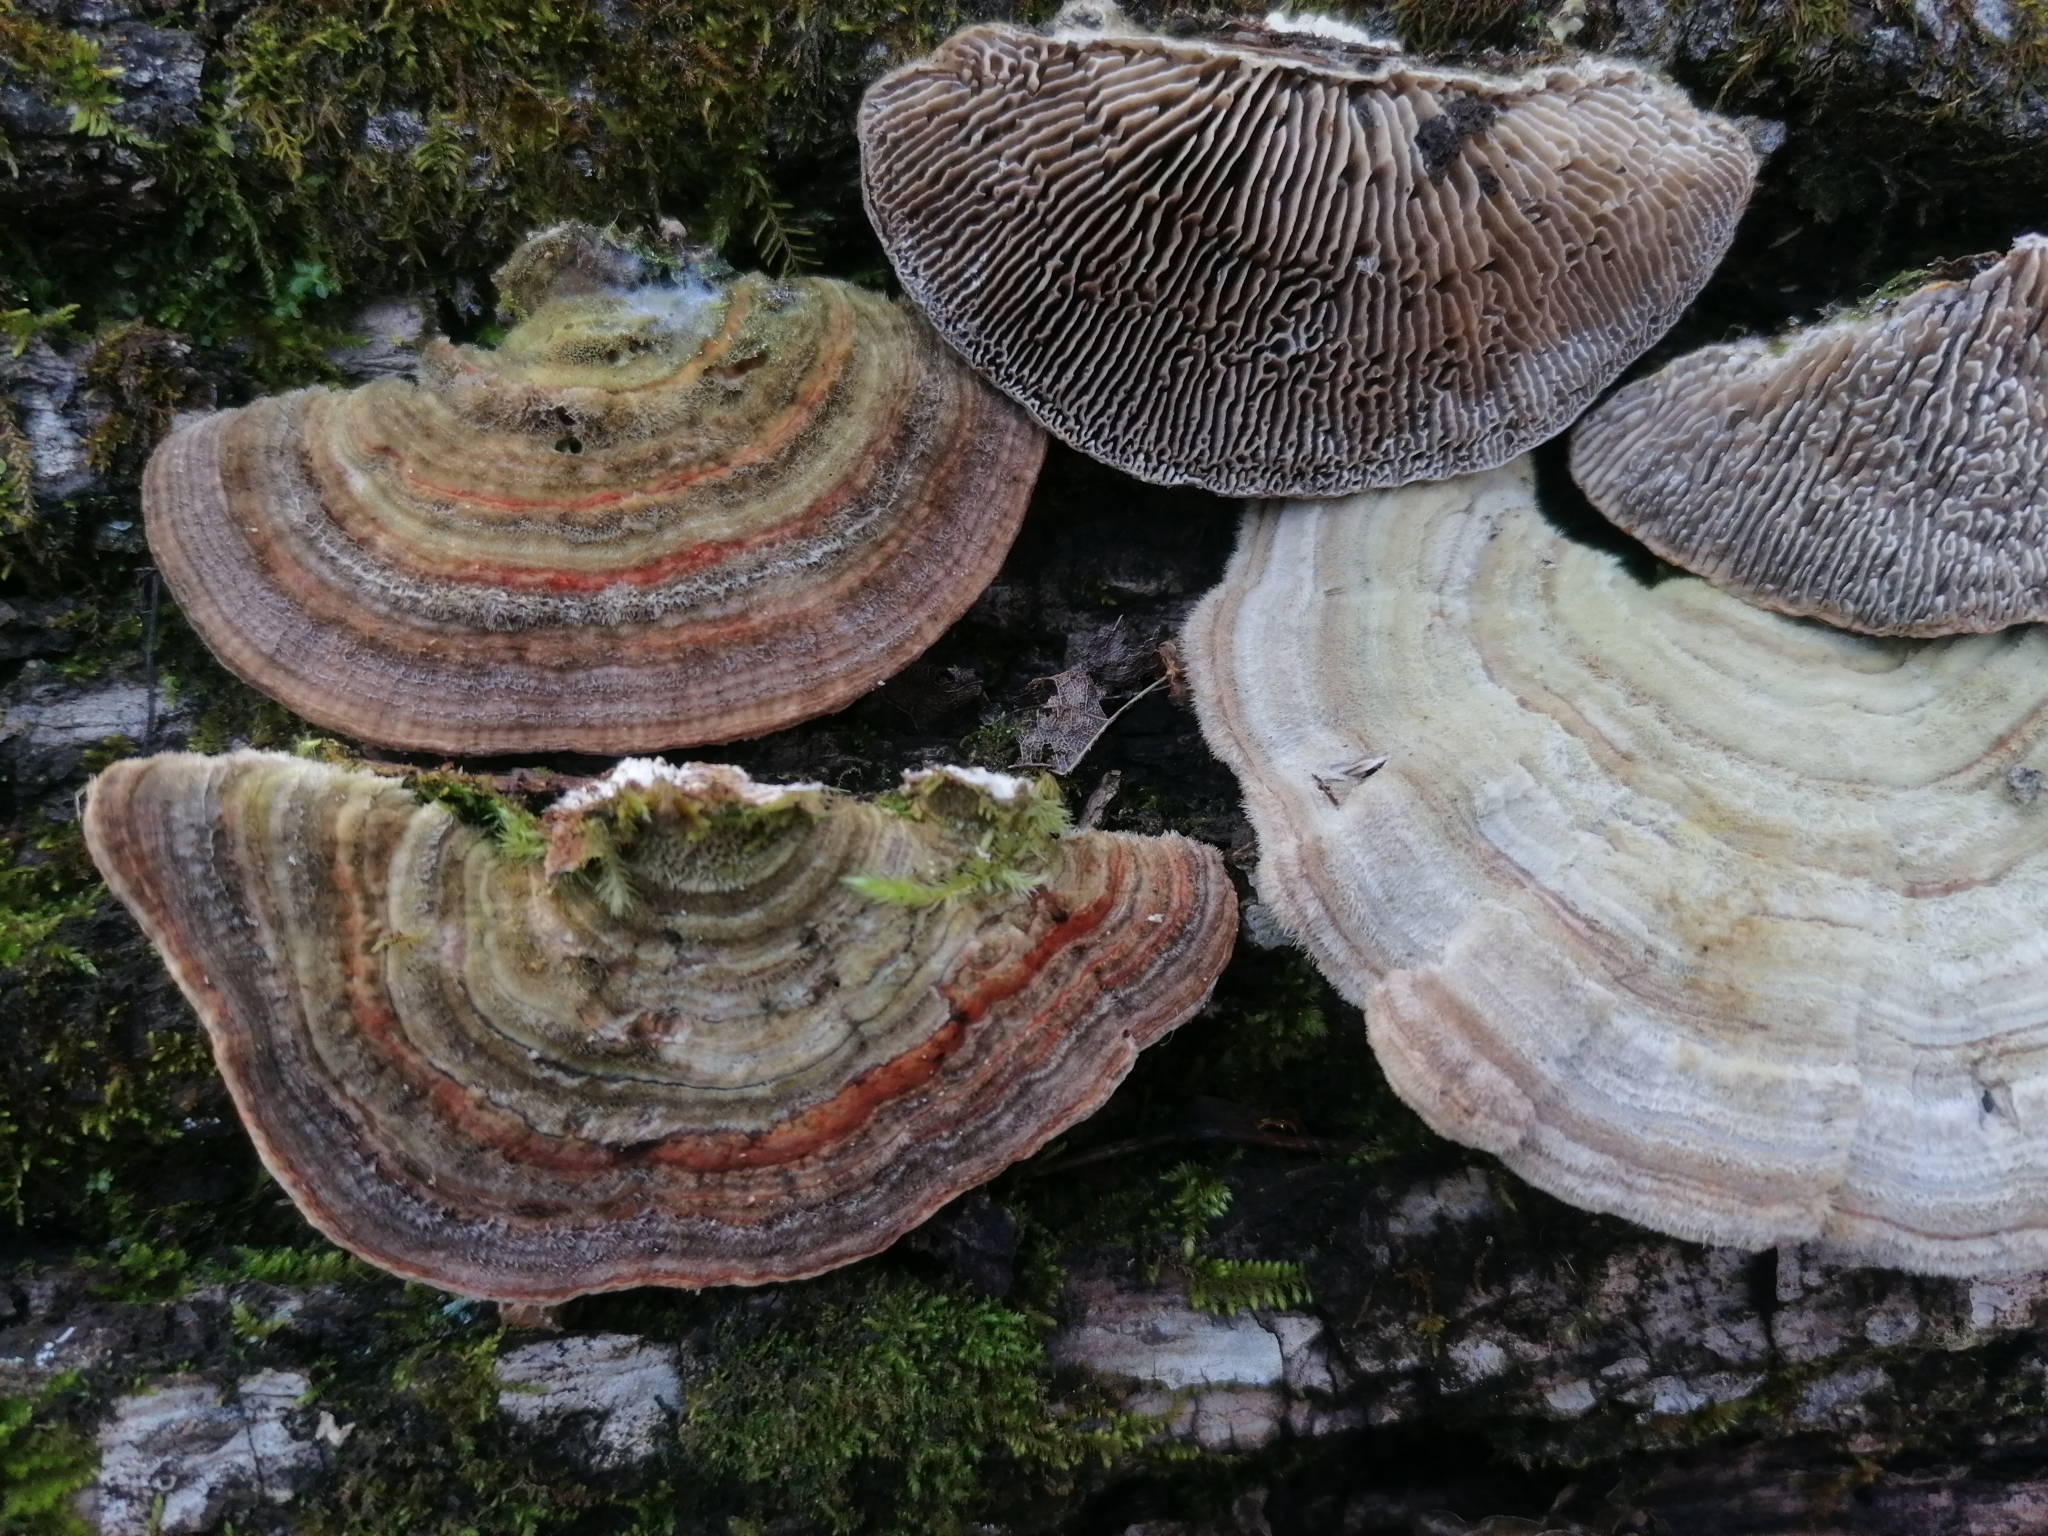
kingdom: Fungi
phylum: Basidiomycota
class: Agaricomycetes
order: Polyporales
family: Polyporaceae
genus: Lenzites
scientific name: Lenzites betulinus
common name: Birch mazegill
